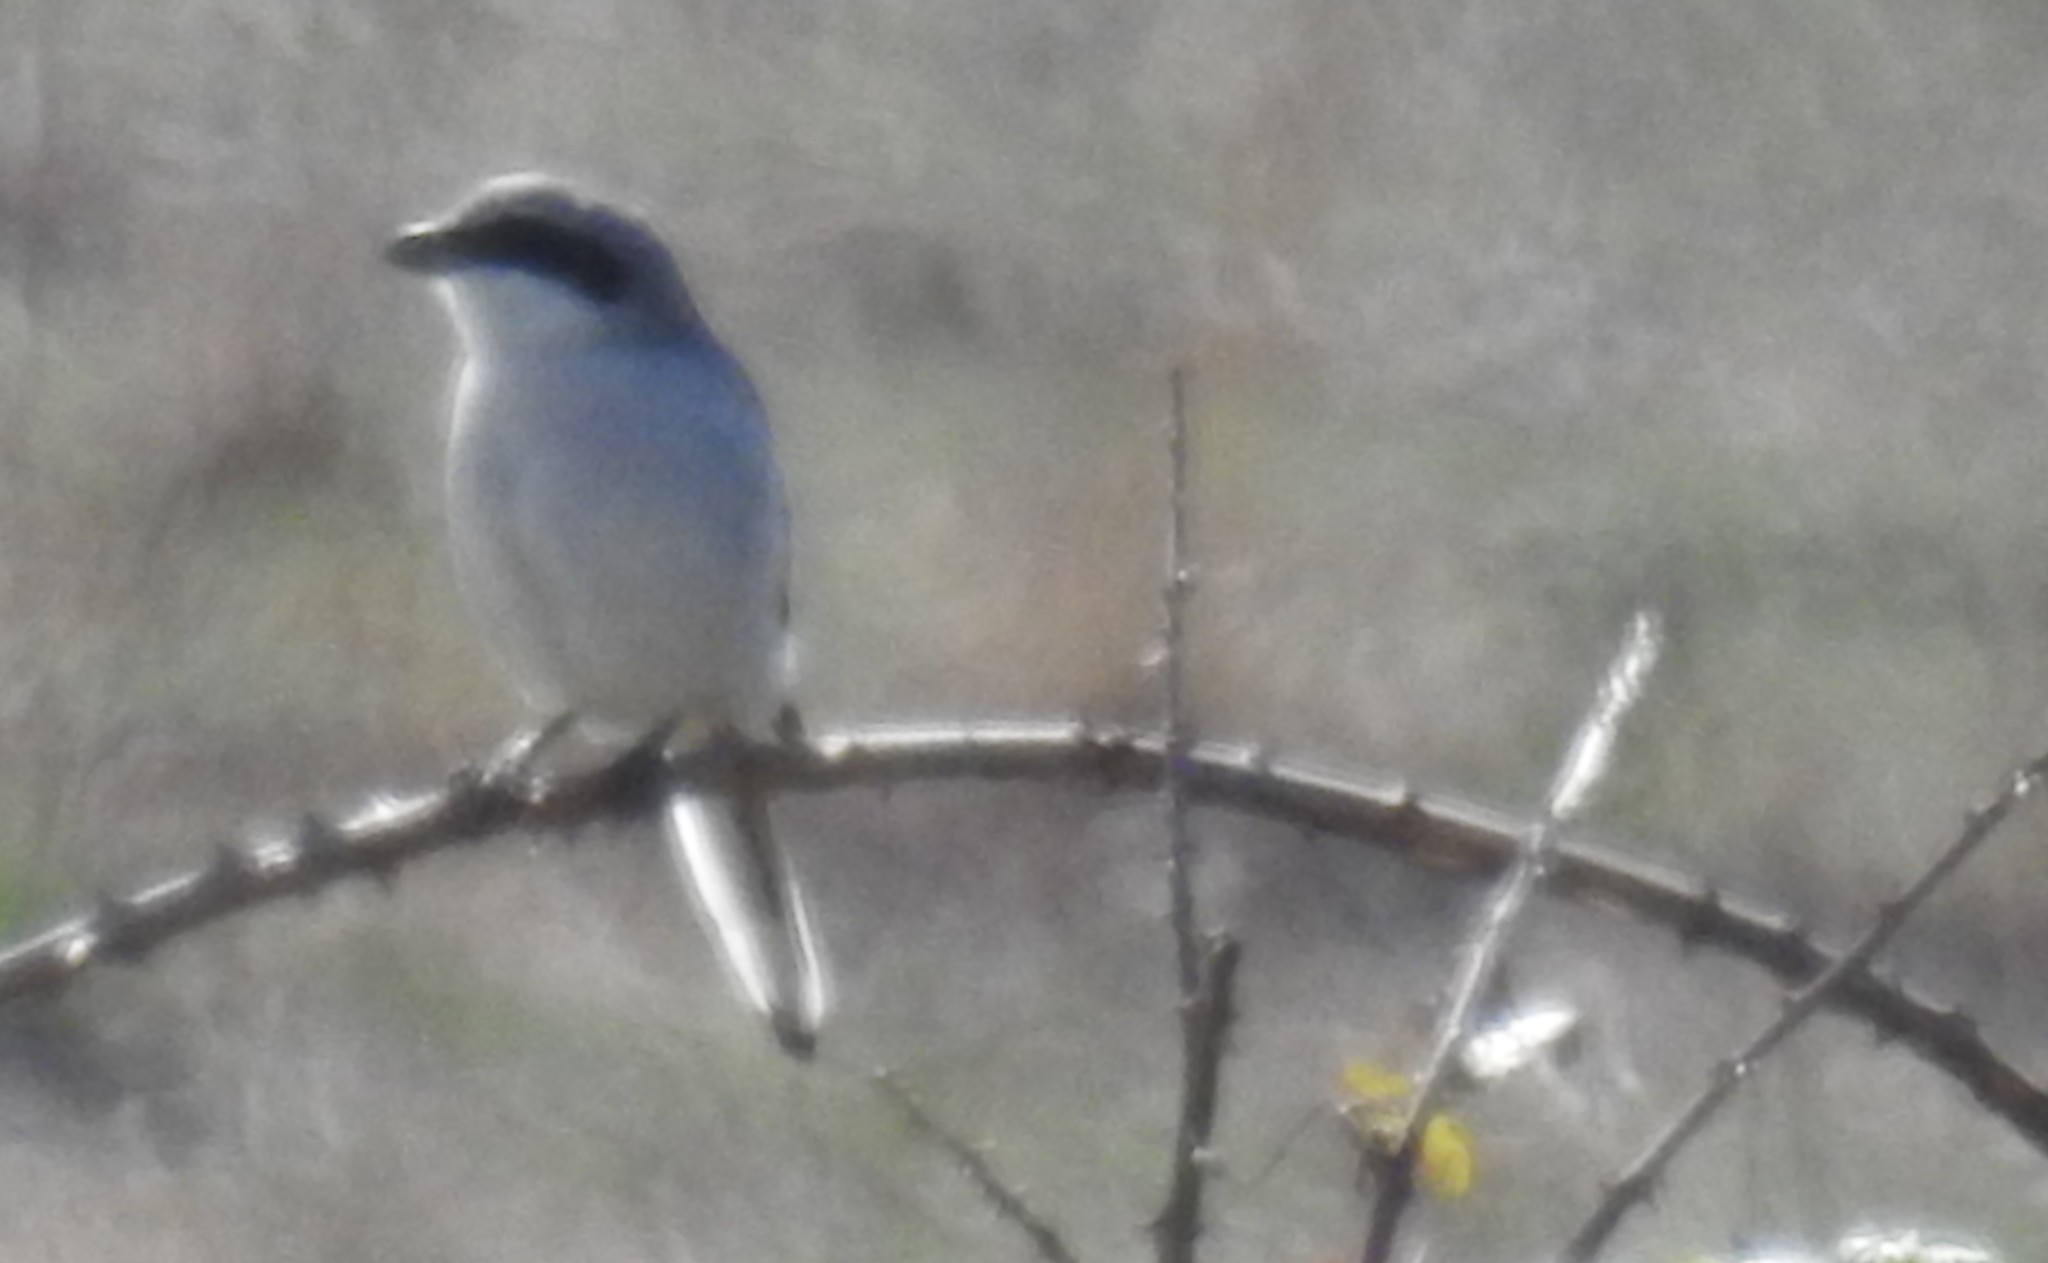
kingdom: Animalia
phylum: Chordata
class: Aves
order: Passeriformes
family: Laniidae
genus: Lanius
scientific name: Lanius excubitor
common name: Great grey shrike
